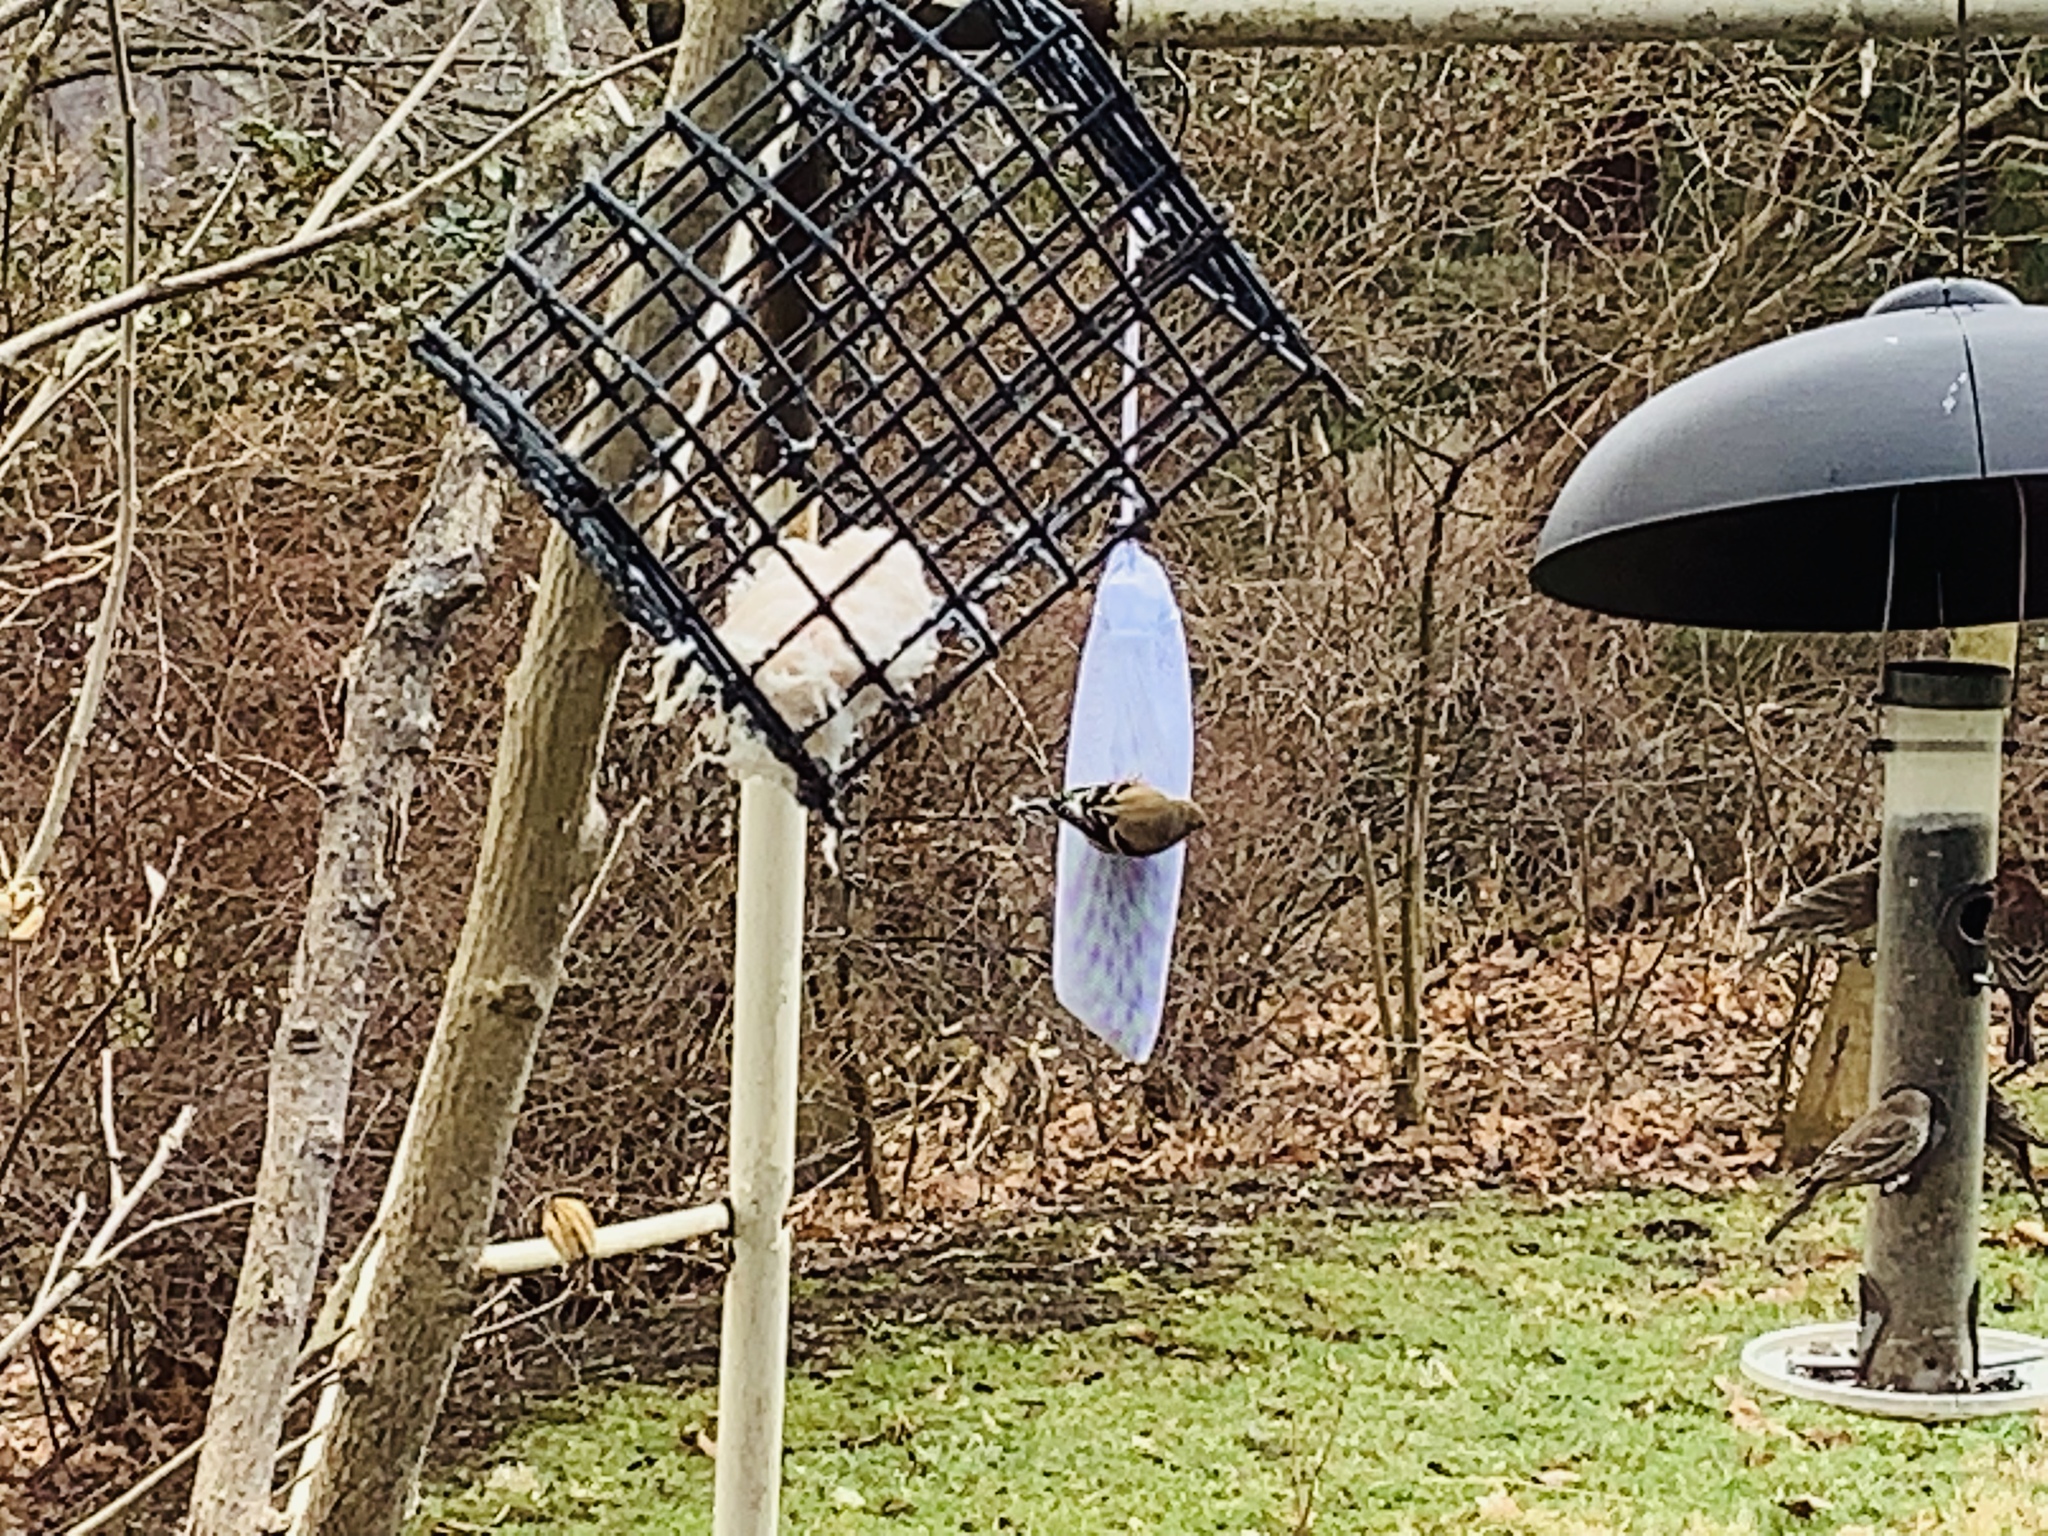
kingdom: Animalia
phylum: Chordata
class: Aves
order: Passeriformes
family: Fringillidae
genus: Spinus
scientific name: Spinus tristis
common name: American goldfinch
